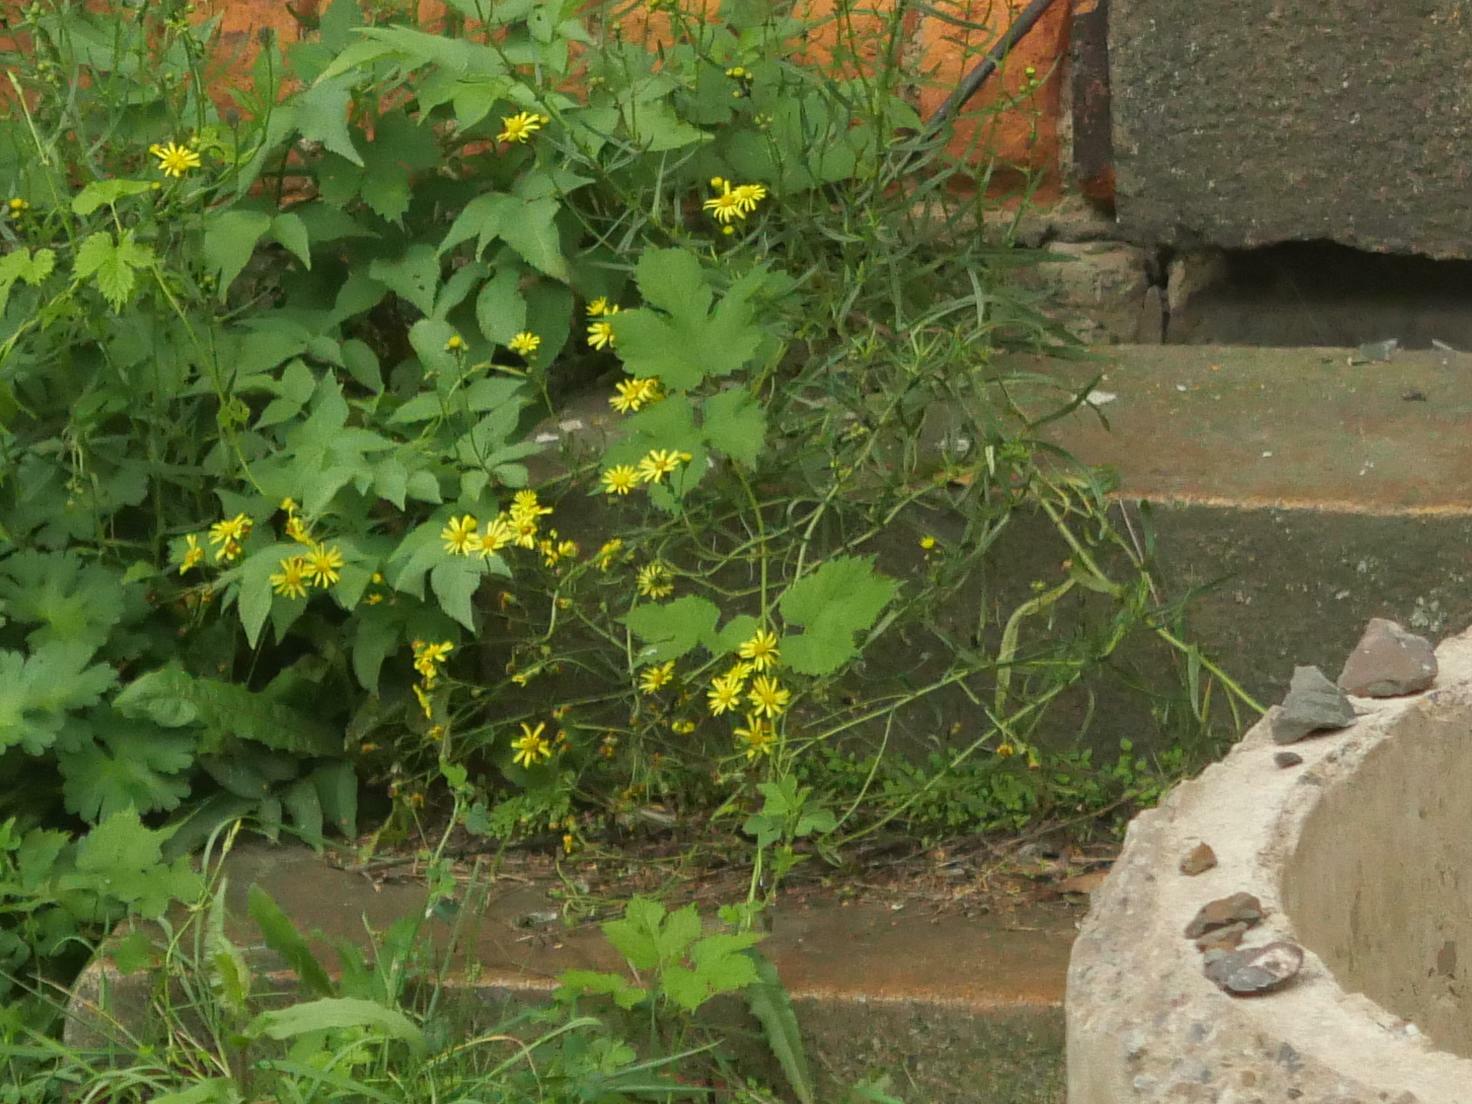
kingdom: Plantae
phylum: Tracheophyta
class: Magnoliopsida
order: Asterales
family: Asteraceae
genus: Senecio
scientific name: Senecio inaequidens
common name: Narrow-leaved ragwort
